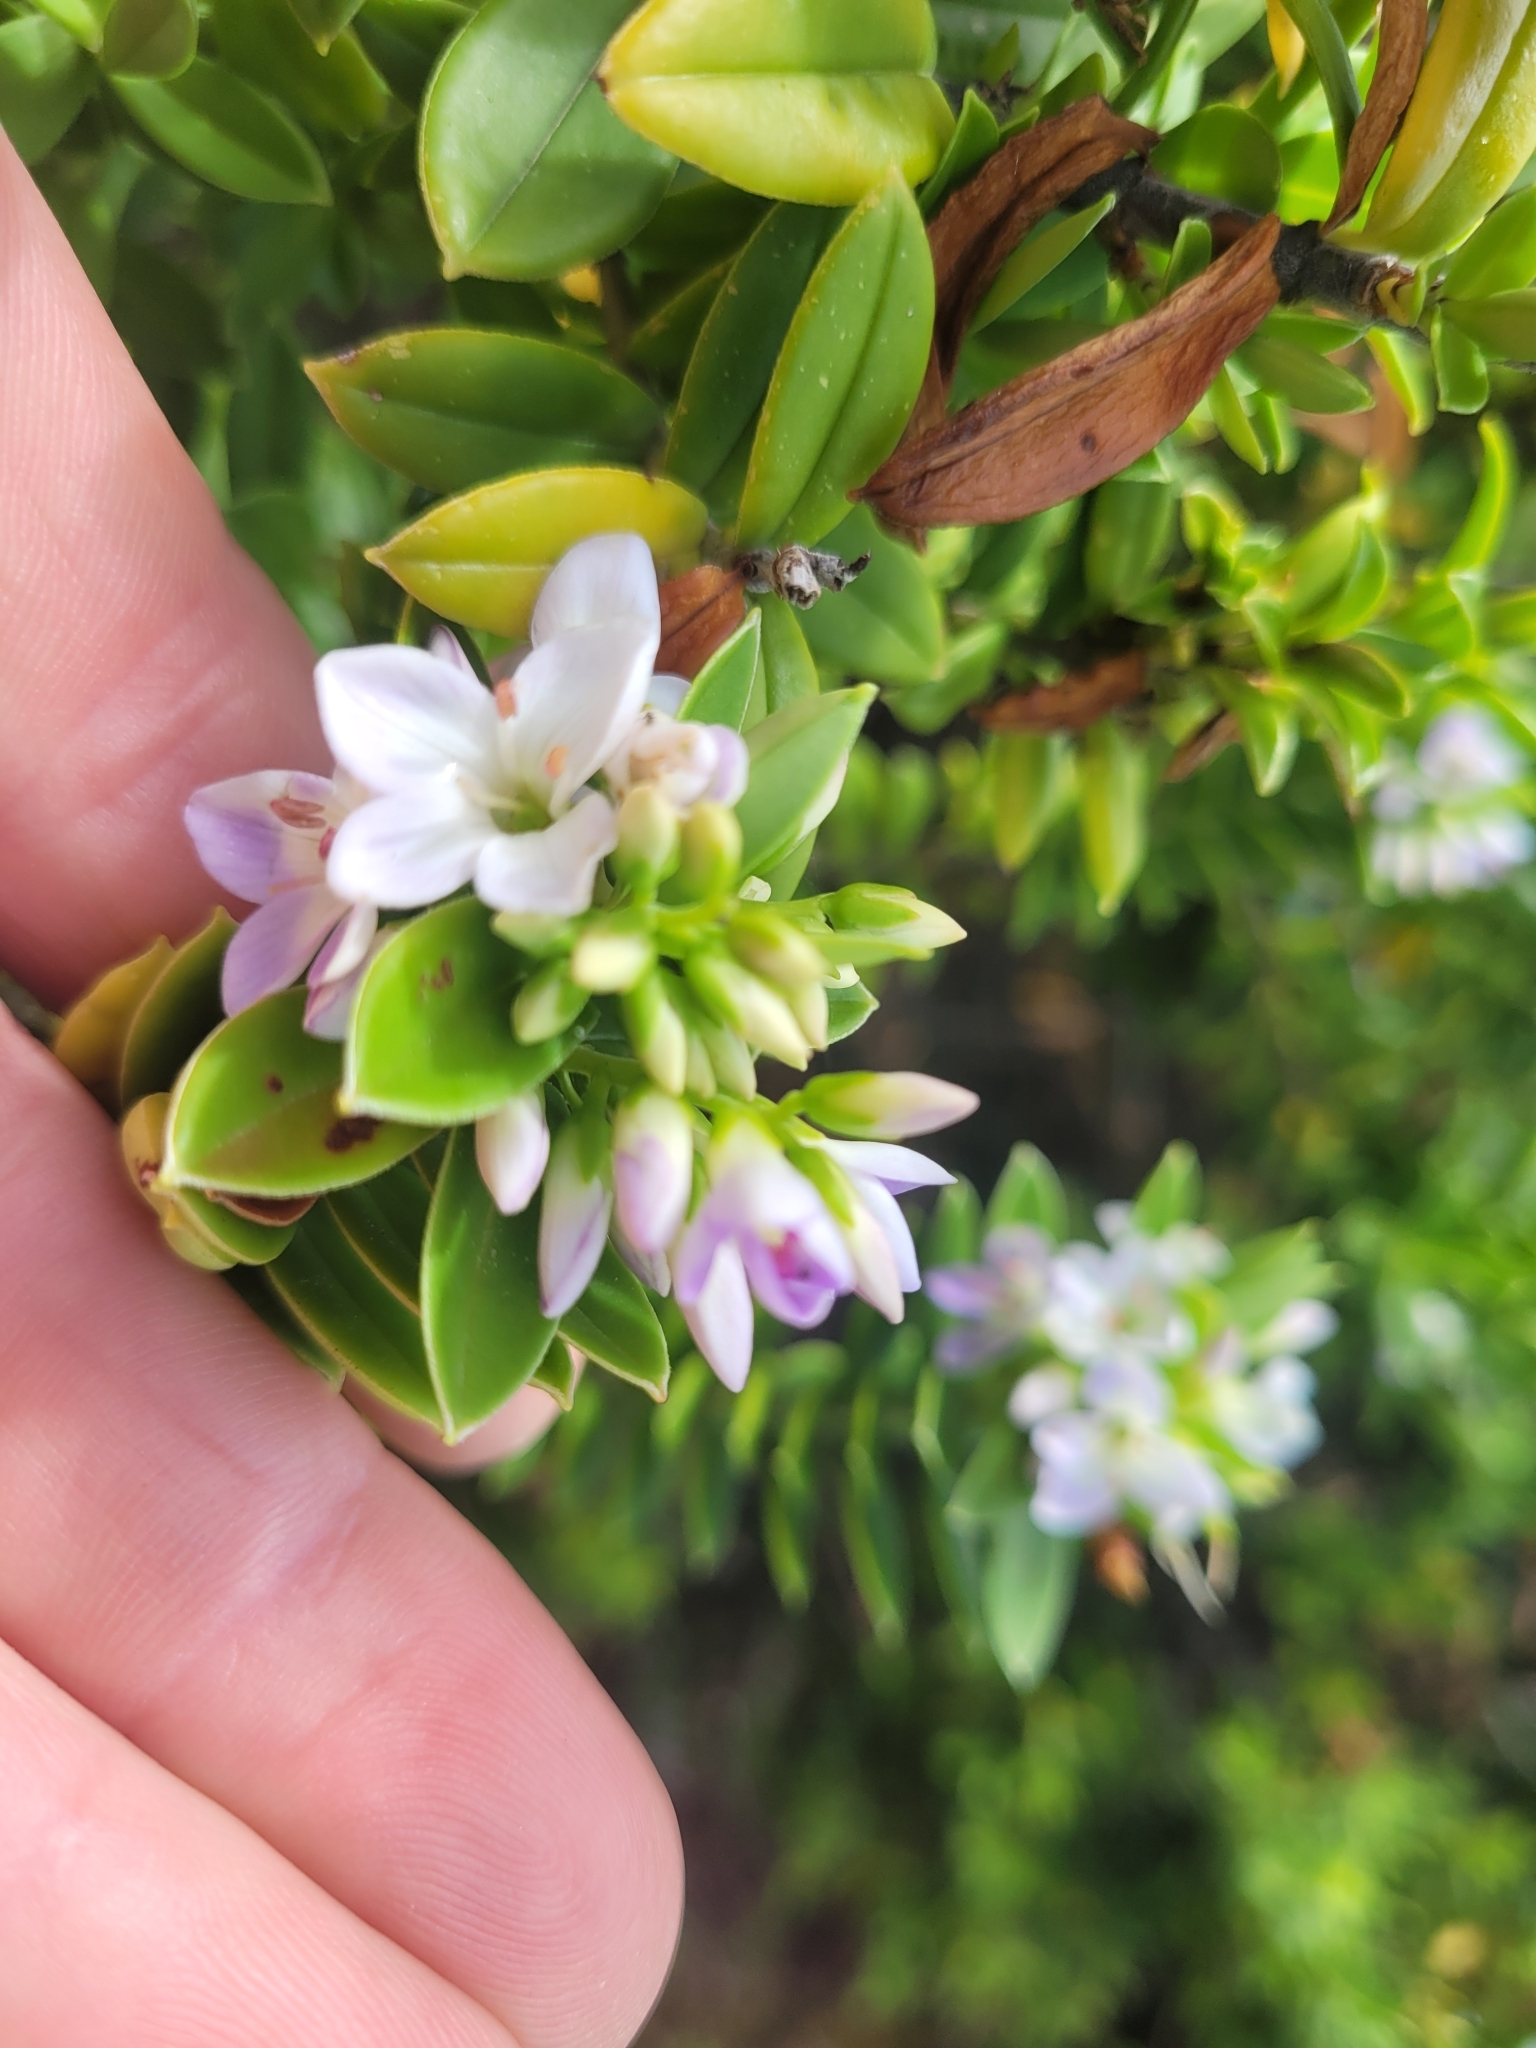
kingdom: Plantae
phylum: Tracheophyta
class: Magnoliopsida
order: Lamiales
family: Plantaginaceae
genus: Veronica
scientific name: Veronica elliptica
